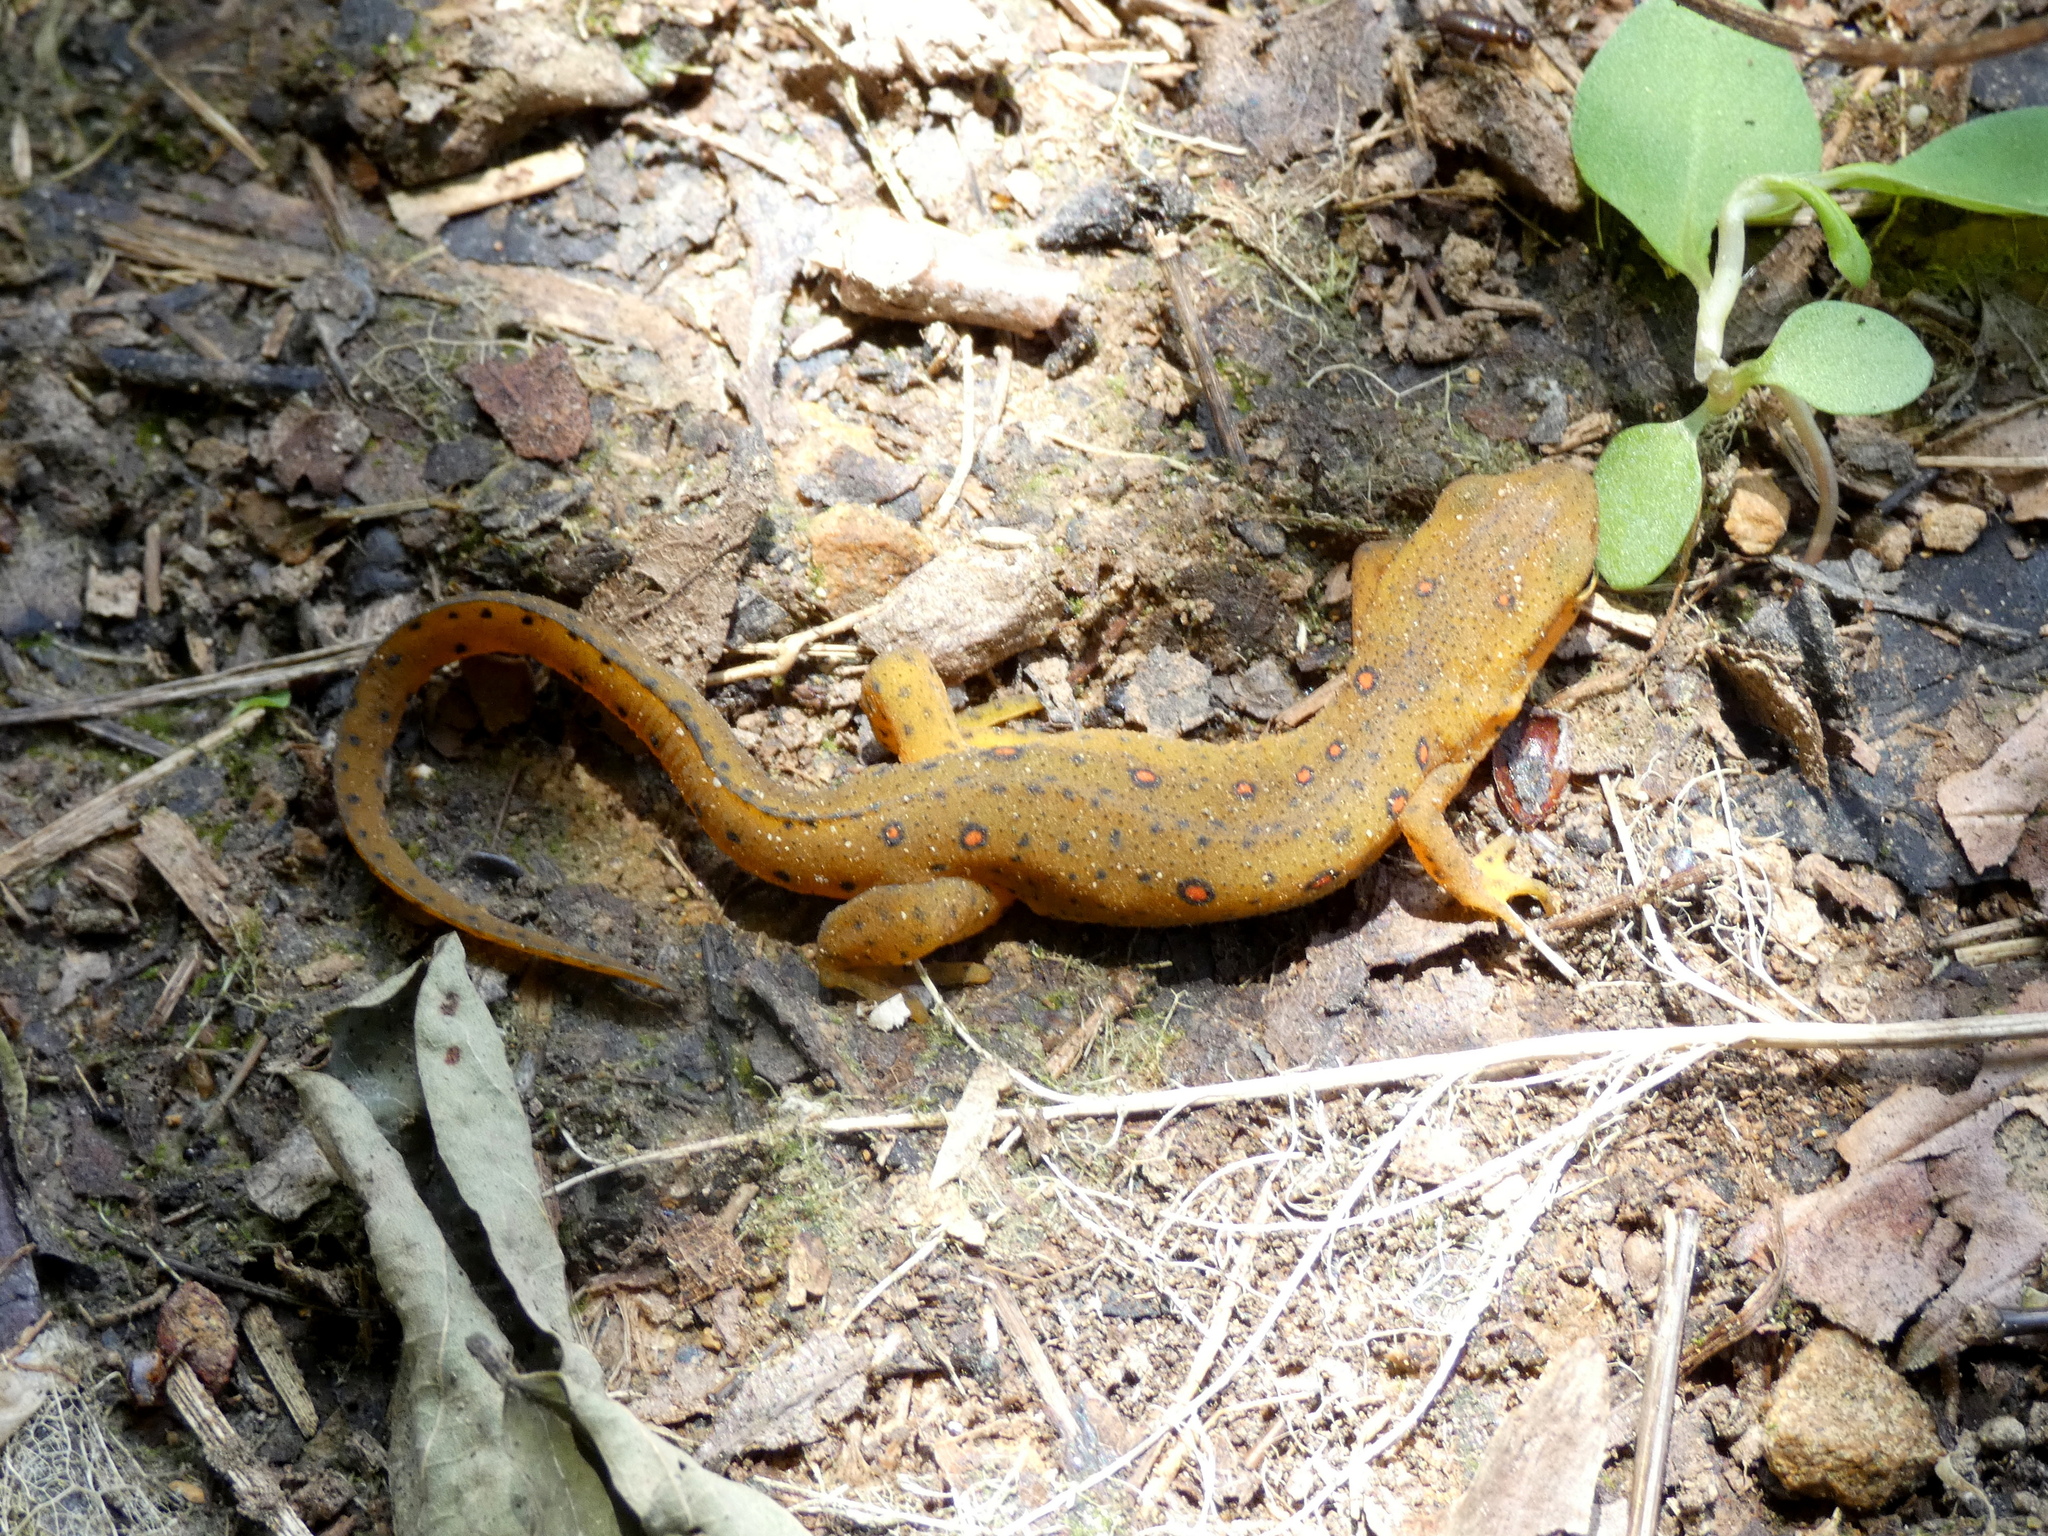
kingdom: Animalia
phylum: Chordata
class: Amphibia
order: Caudata
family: Salamandridae
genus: Notophthalmus
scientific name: Notophthalmus viridescens
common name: Eastern newt
